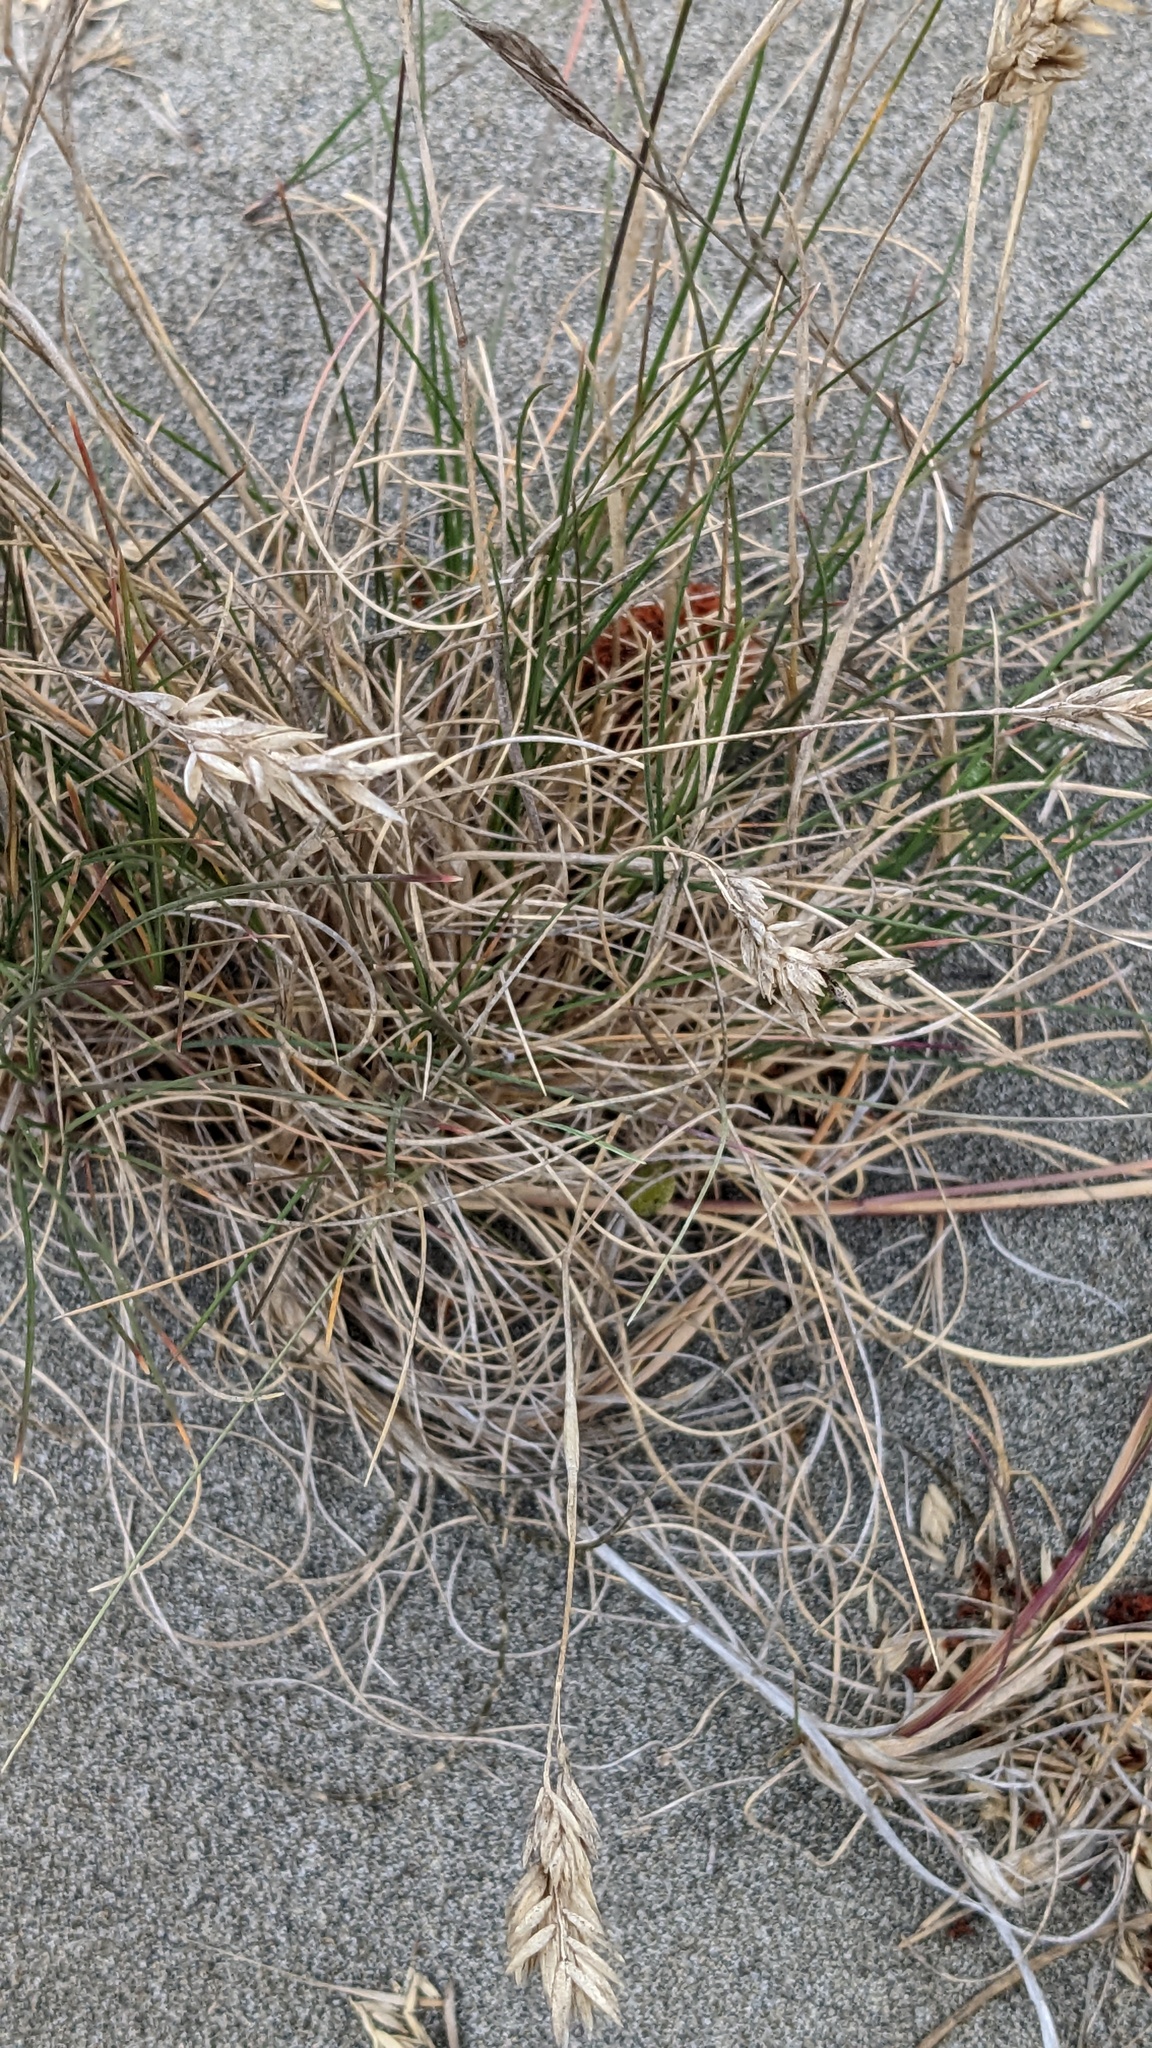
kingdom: Plantae
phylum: Tracheophyta
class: Liliopsida
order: Poales
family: Poaceae
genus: Poa
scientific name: Poa macrantha
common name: Dune bluegrass
